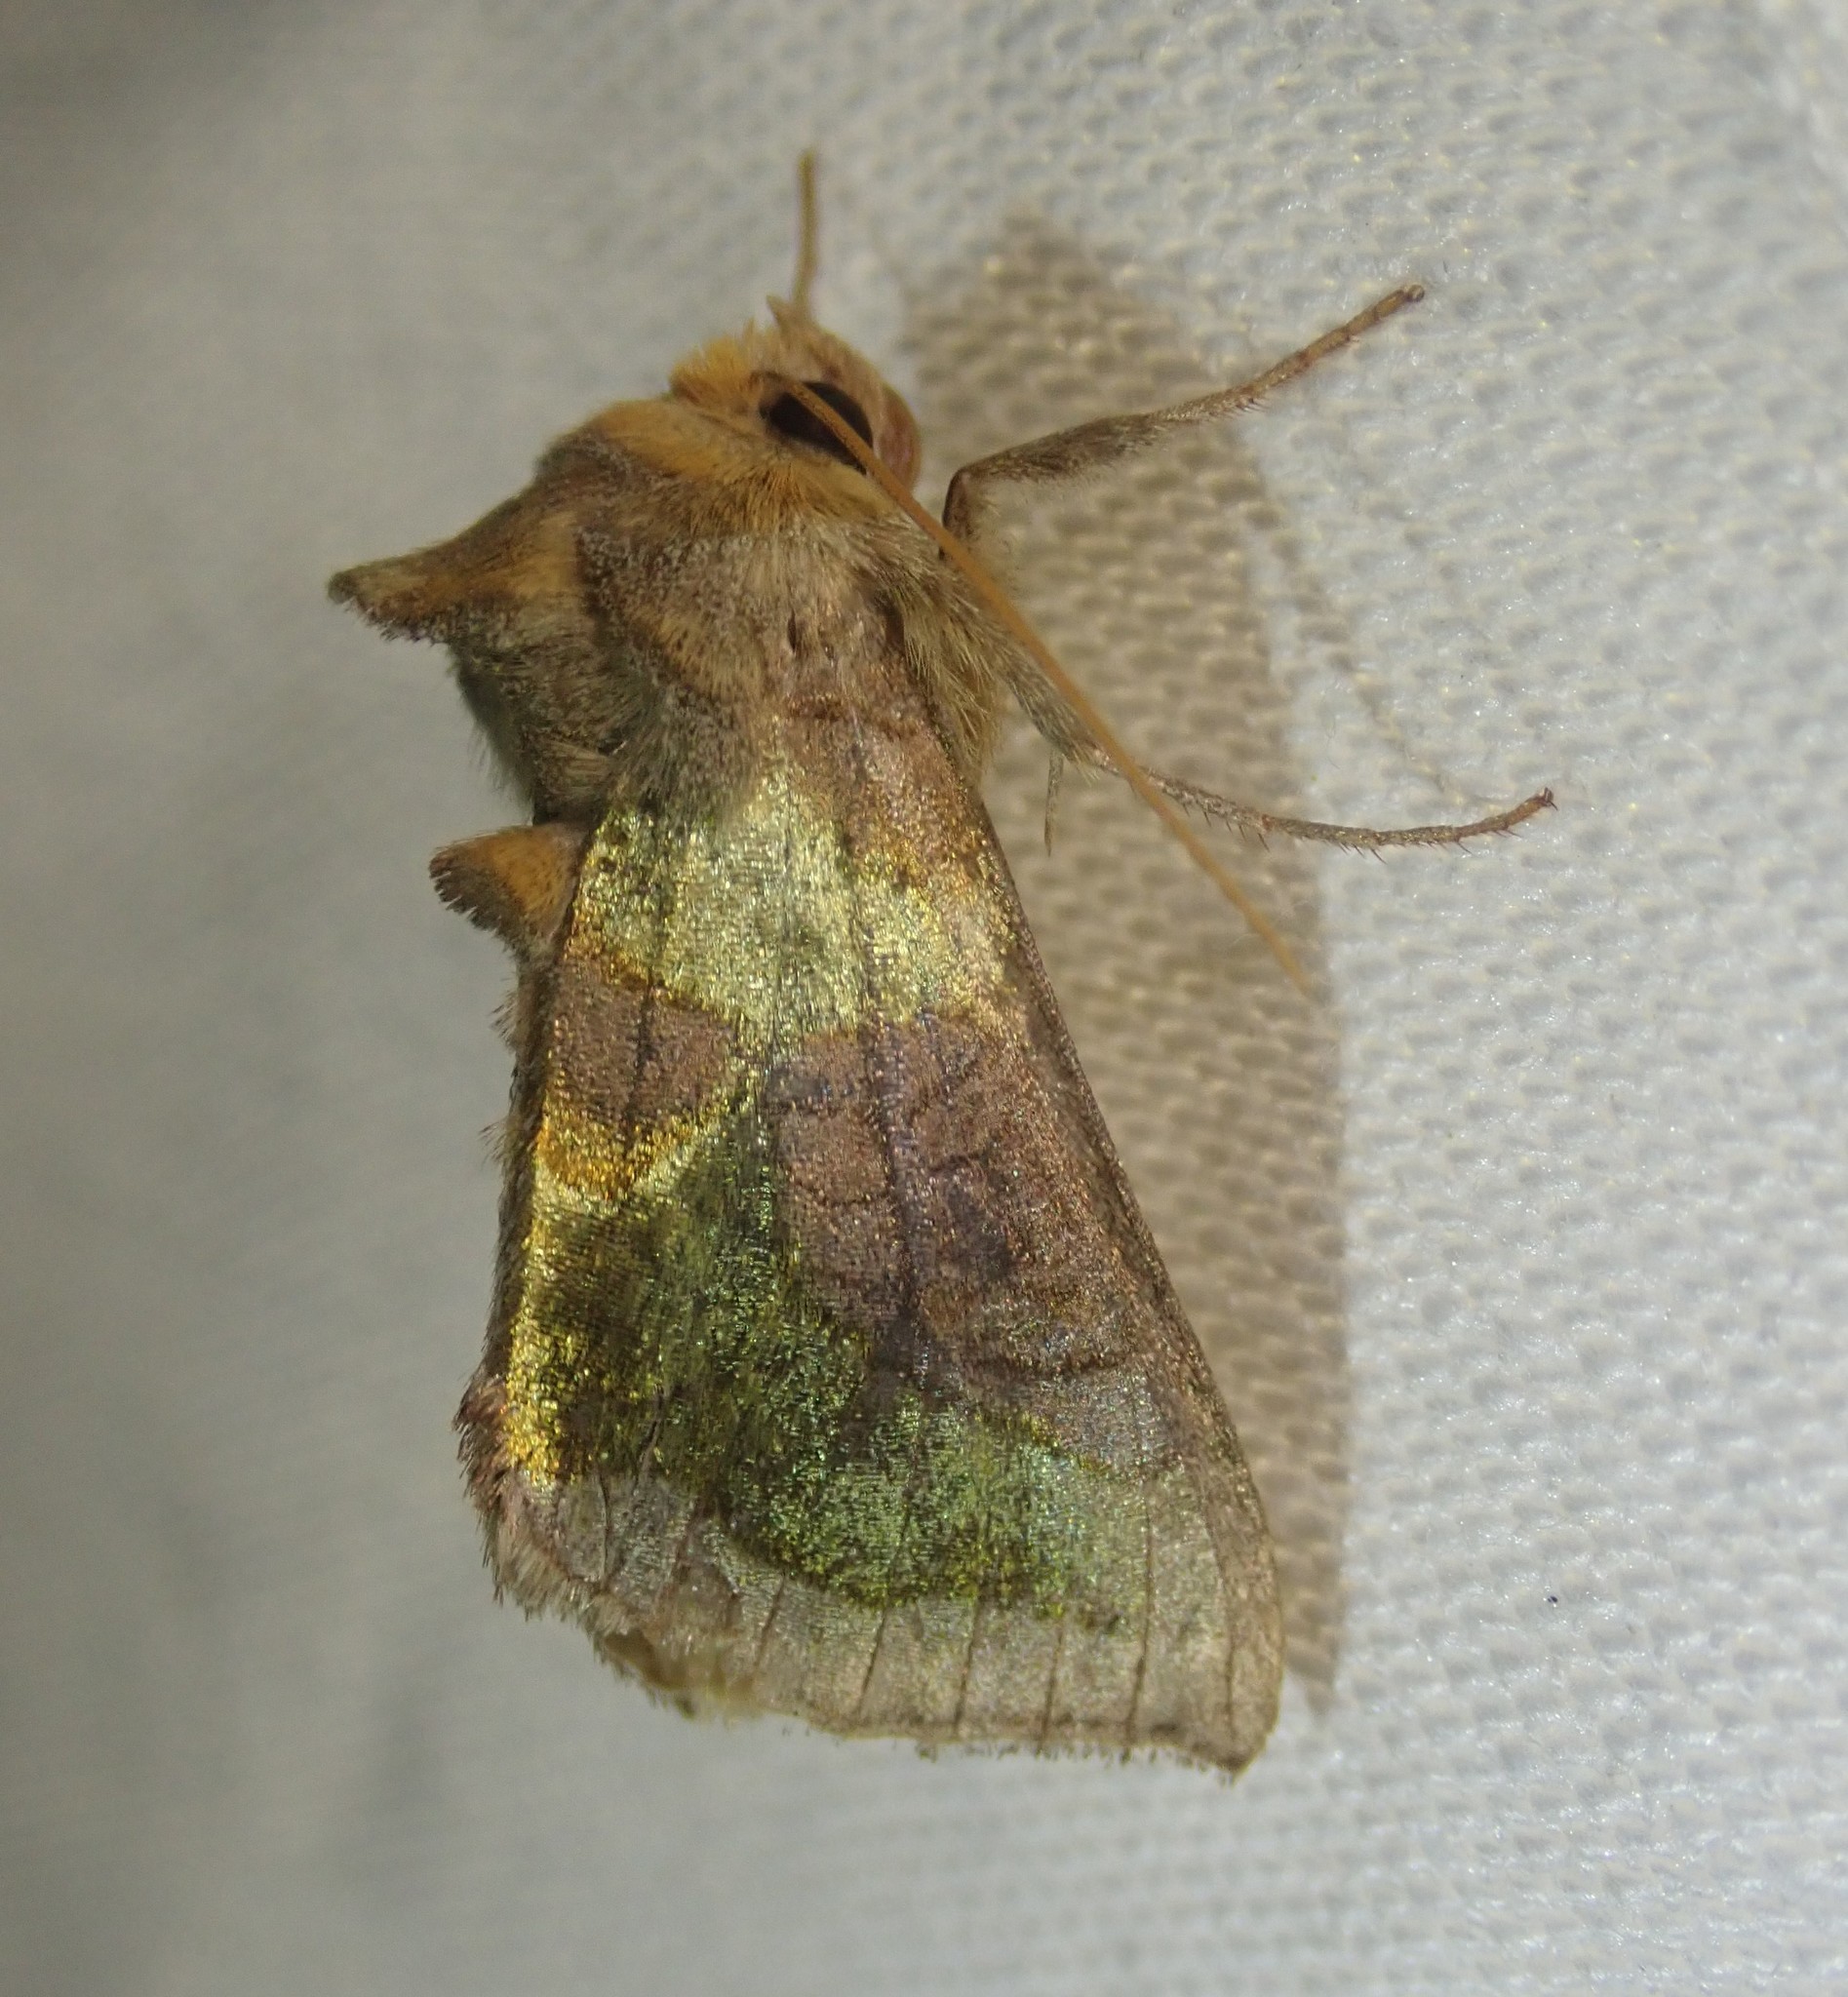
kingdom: Animalia
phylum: Arthropoda
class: Insecta
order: Lepidoptera
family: Noctuidae
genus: Diachrysia
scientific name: Diachrysia stenochrysis
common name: Cryptic burnished brass
